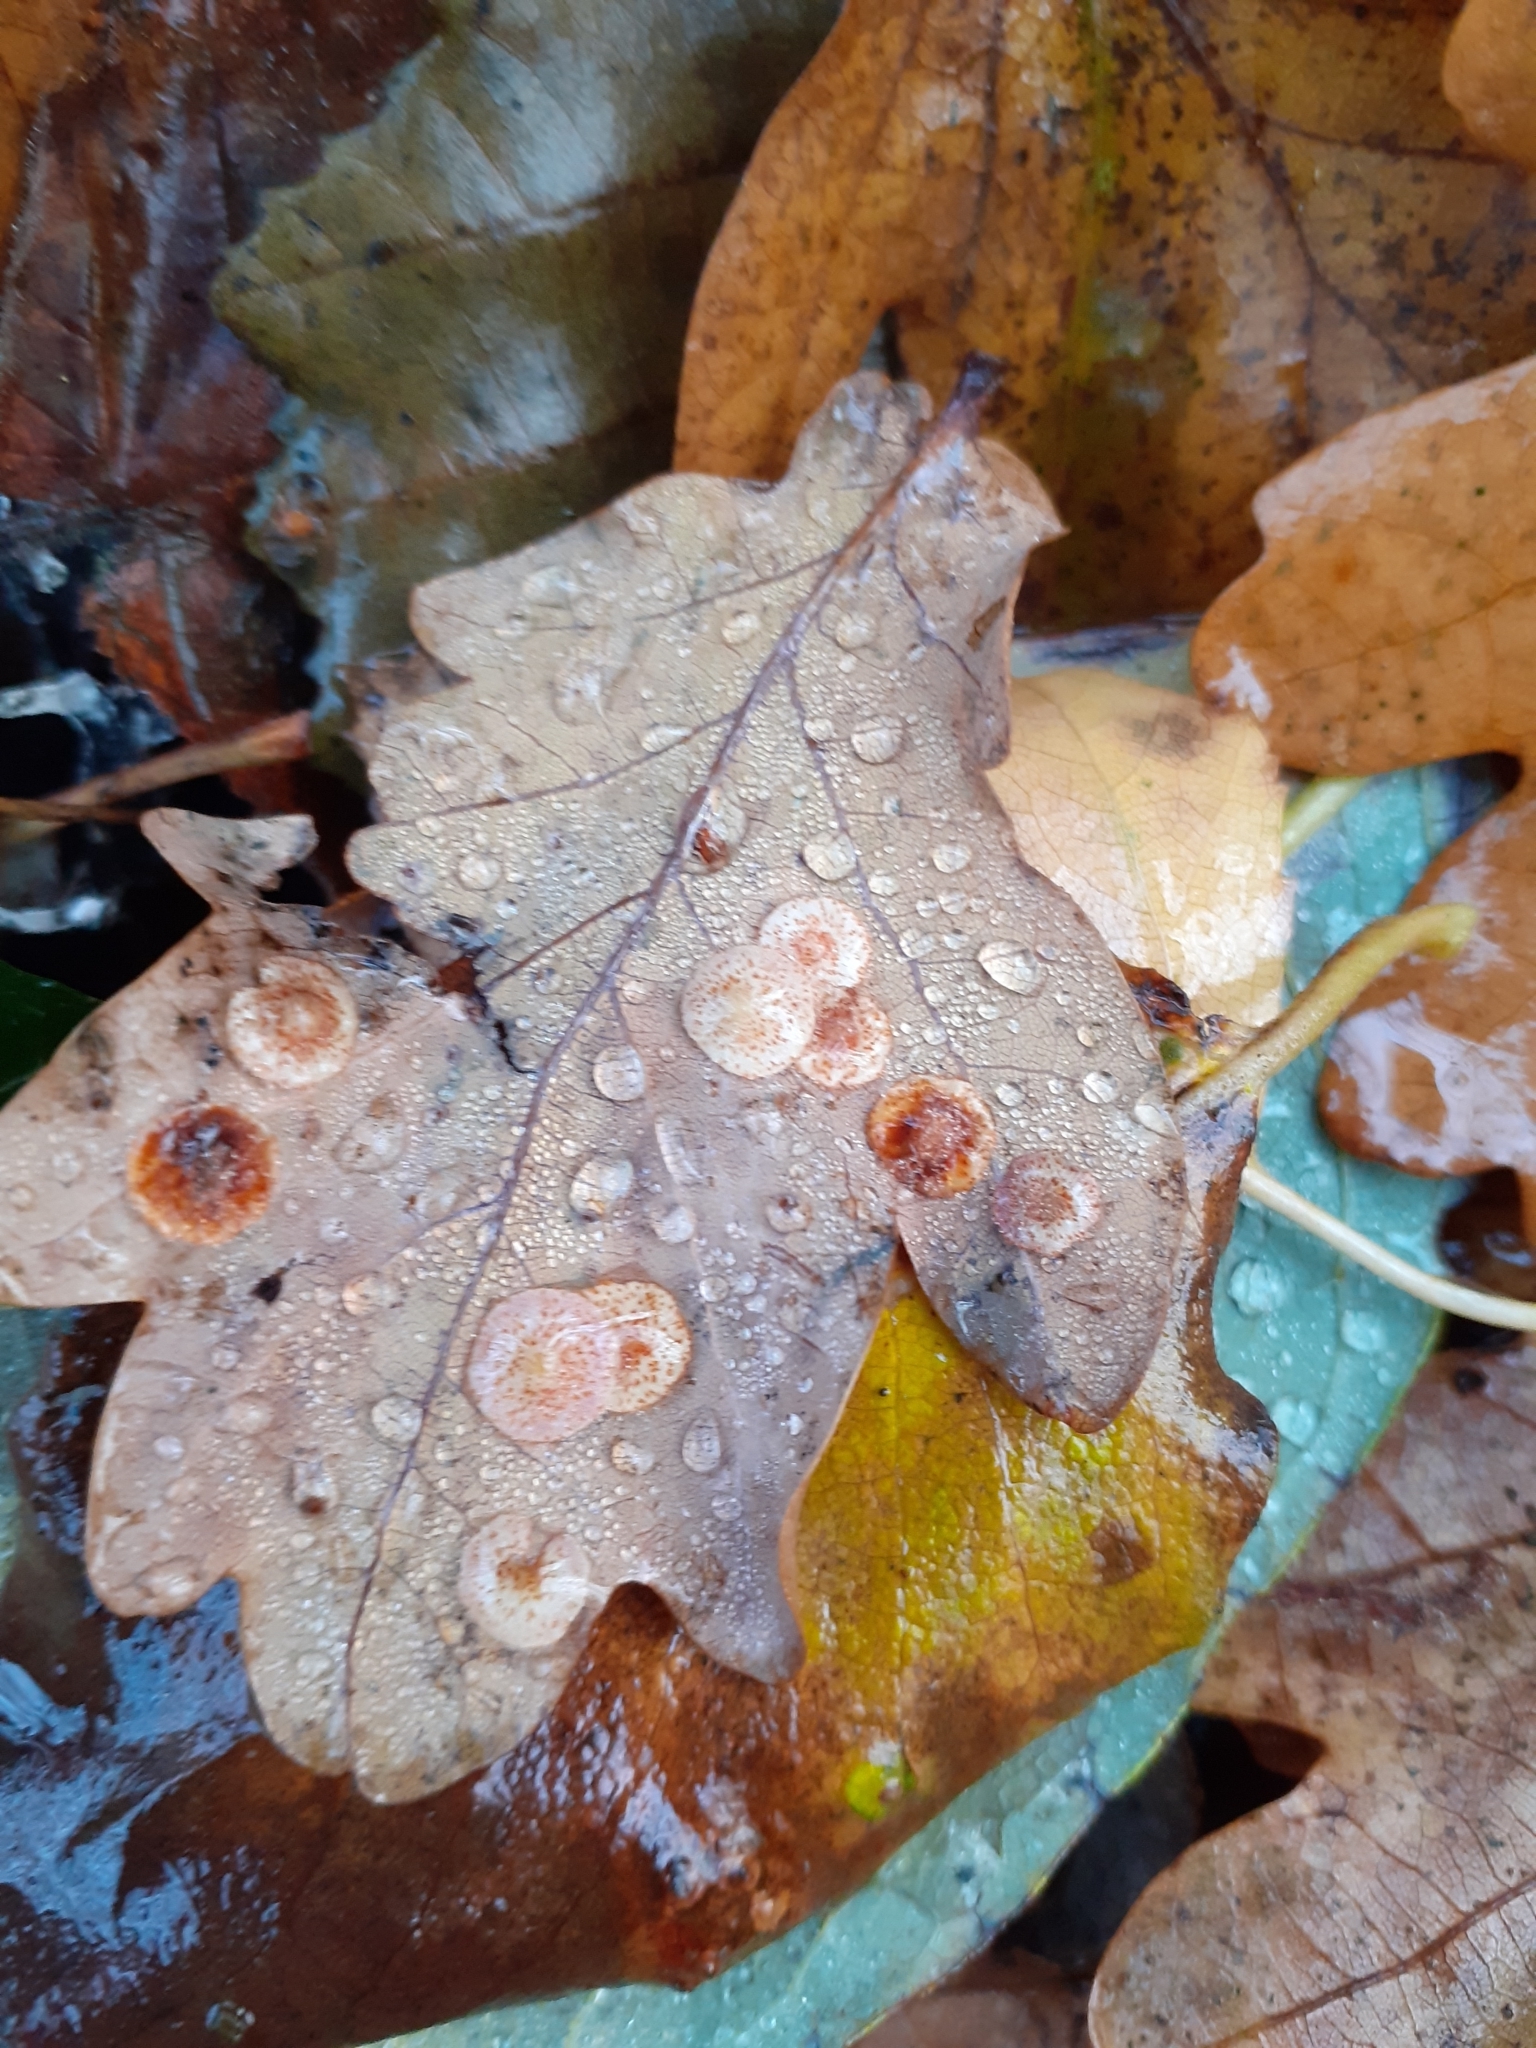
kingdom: Animalia
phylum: Arthropoda
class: Insecta
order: Hymenoptera
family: Cynipidae
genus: Neuroterus
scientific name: Neuroterus quercusbaccarum
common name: Common spangle gall
